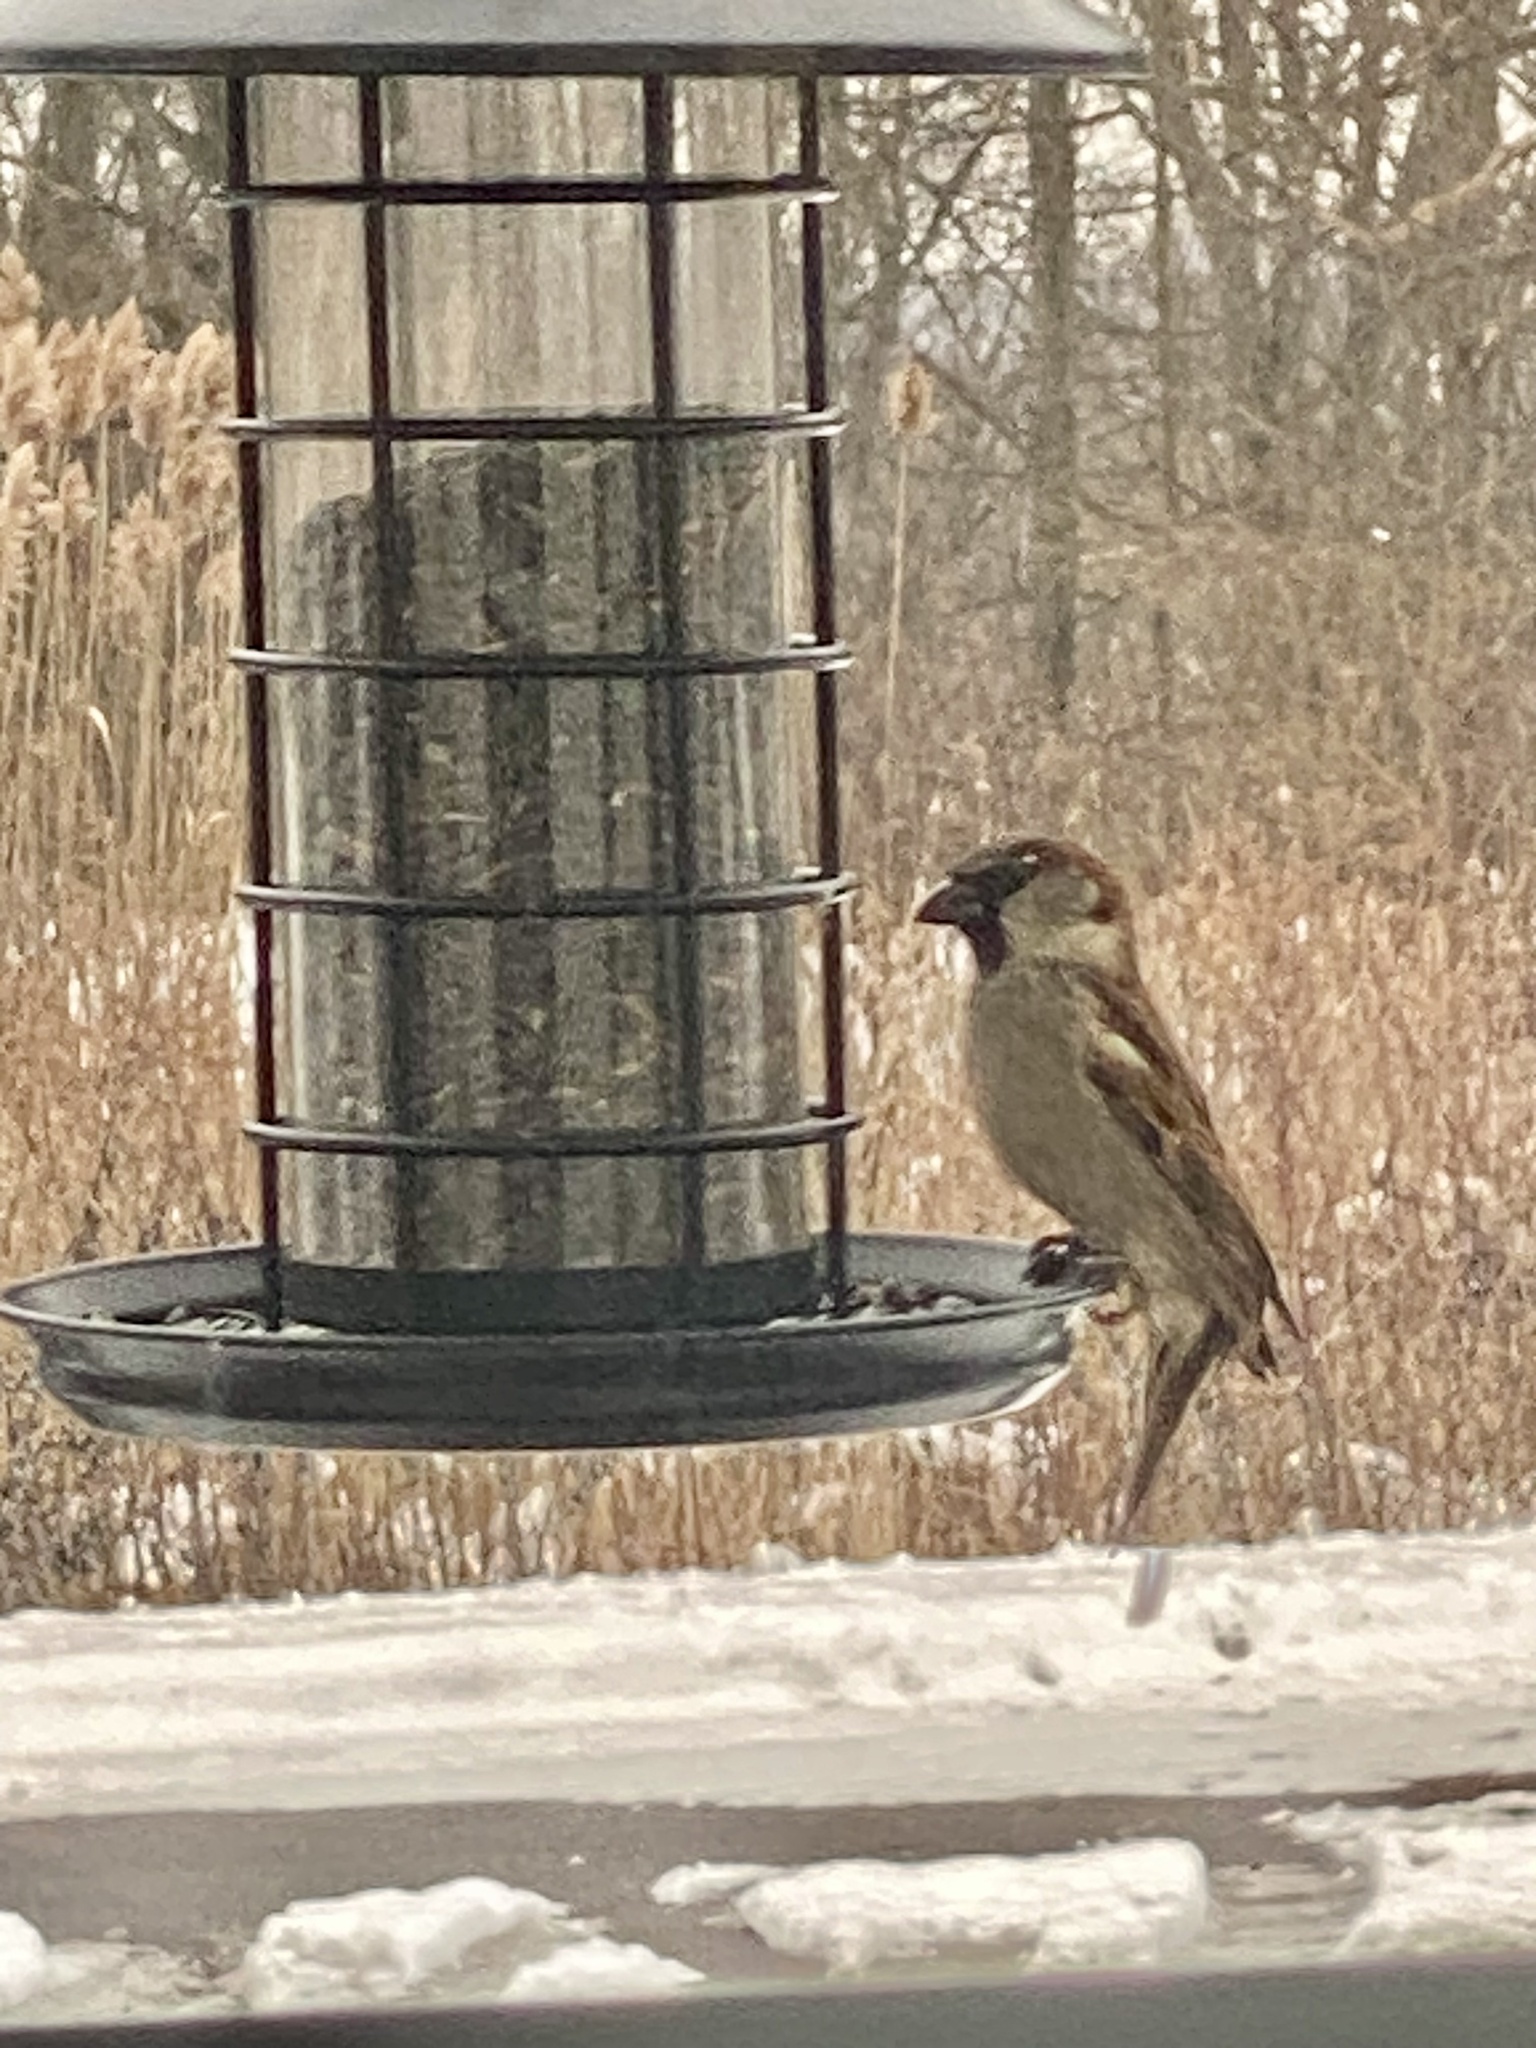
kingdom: Animalia
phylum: Chordata
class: Aves
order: Passeriformes
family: Passeridae
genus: Passer
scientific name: Passer domesticus
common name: House sparrow
